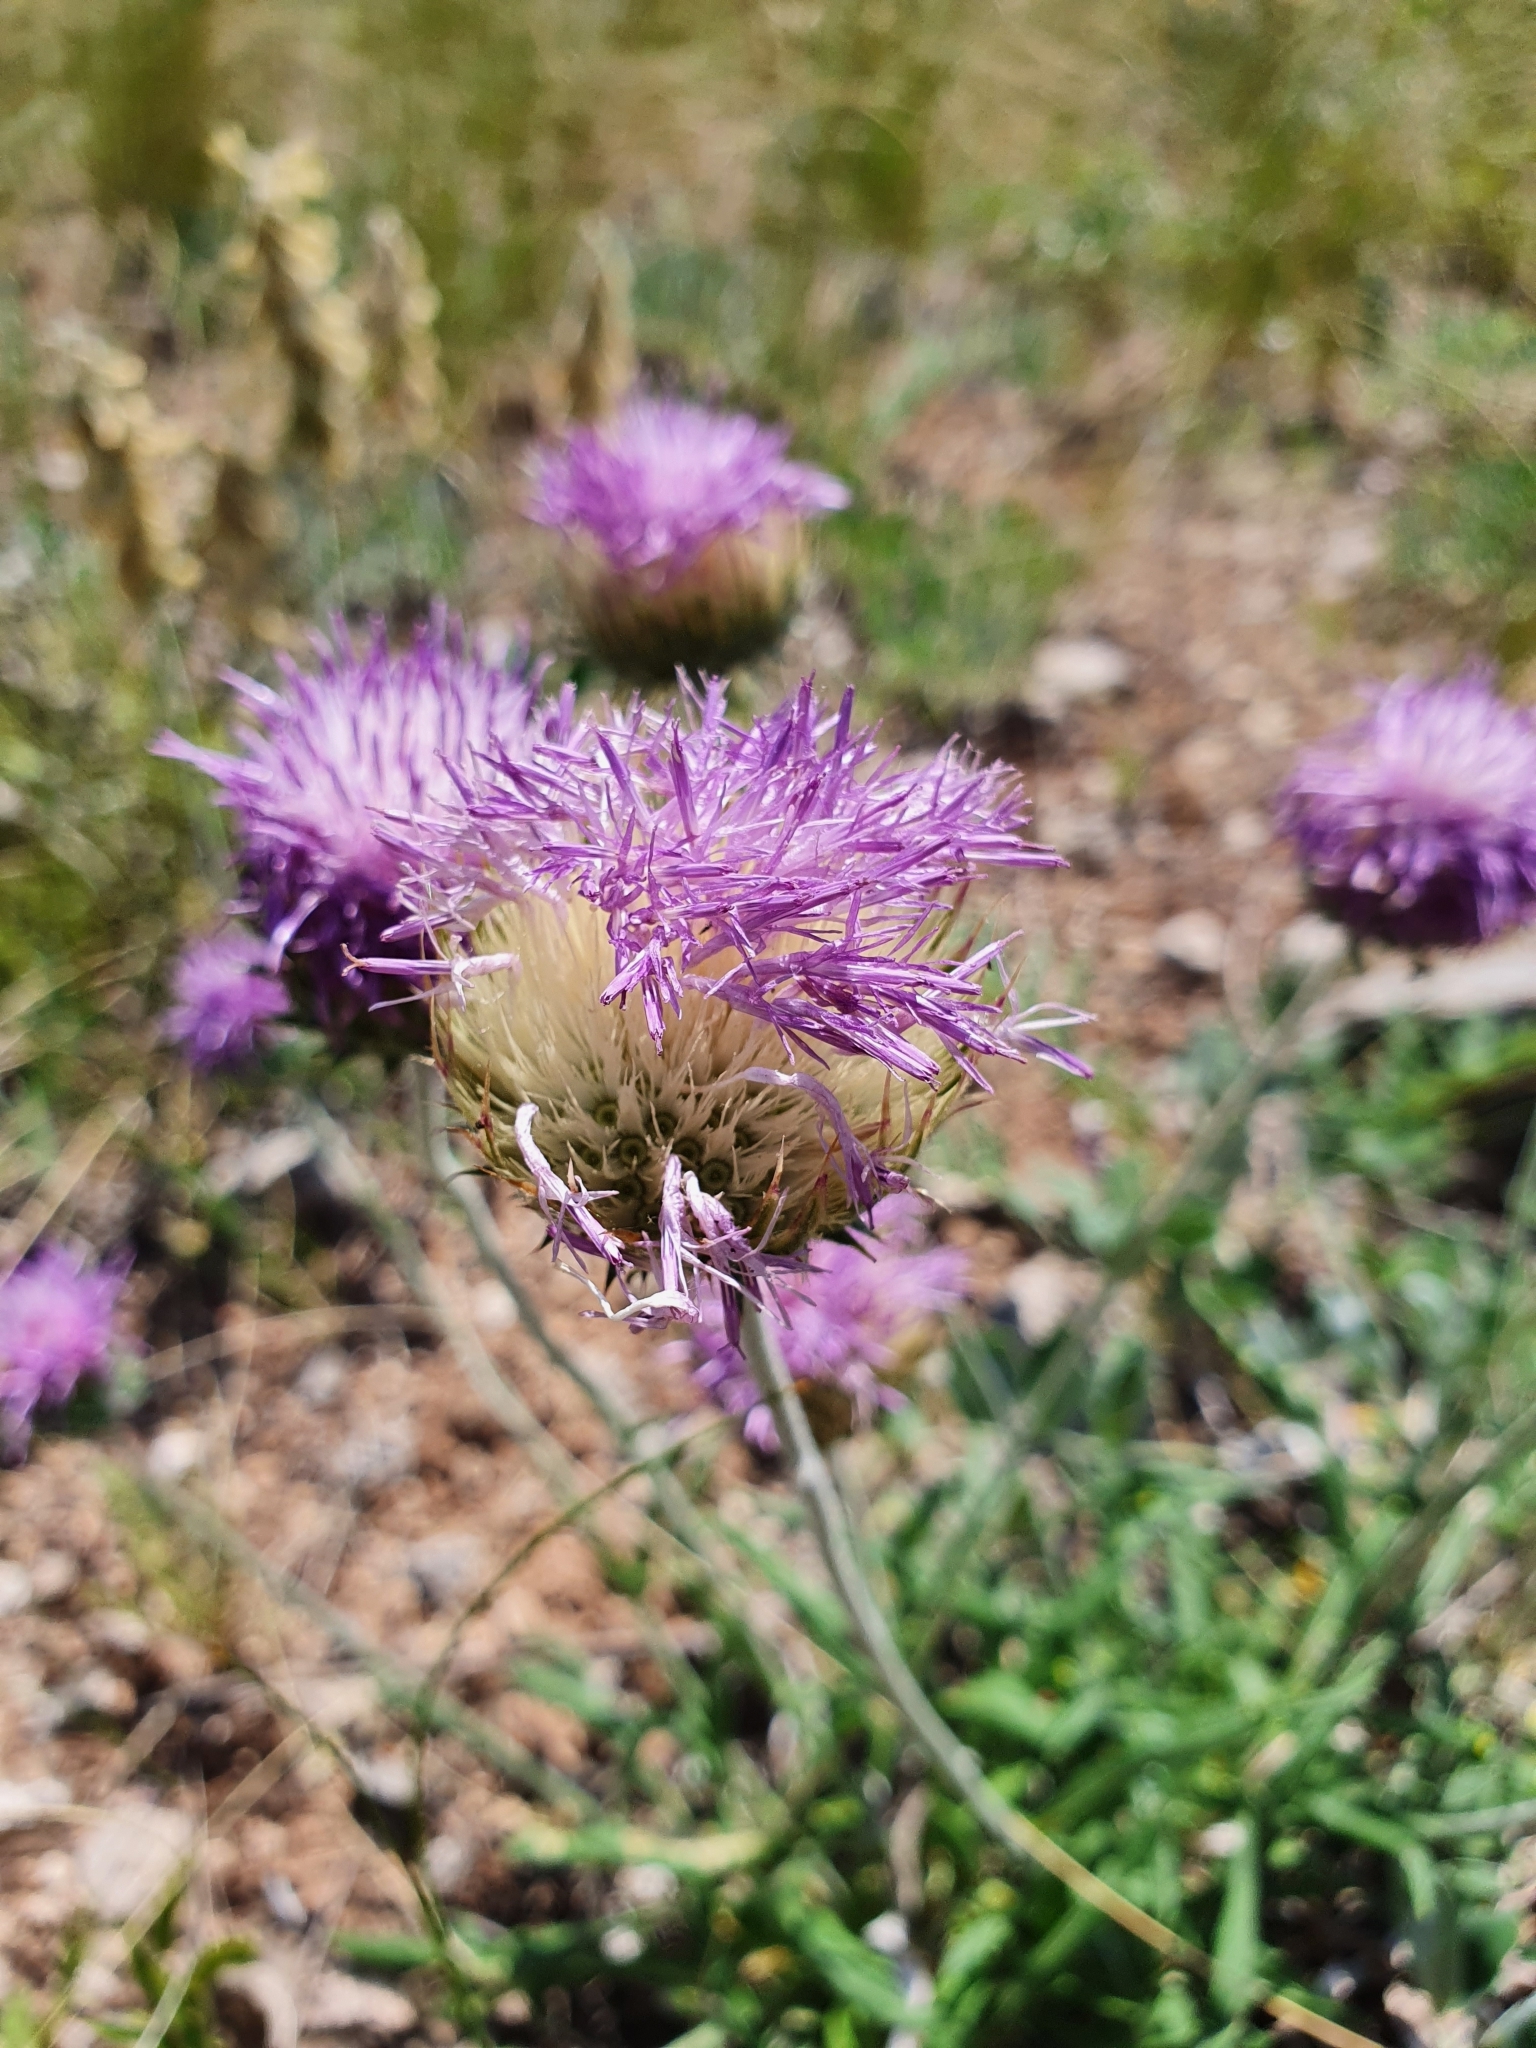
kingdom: Plantae
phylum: Tracheophyta
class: Magnoliopsida
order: Asterales
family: Asteraceae
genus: Jurinea
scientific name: Jurinea ledebourii
